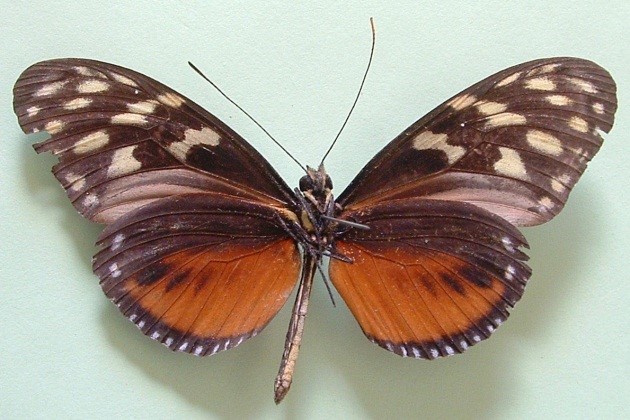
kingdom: Animalia
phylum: Arthropoda
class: Insecta
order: Lepidoptera
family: Nymphalidae
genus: Heliconius
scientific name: Heliconius hecale
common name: Tiger longwing
